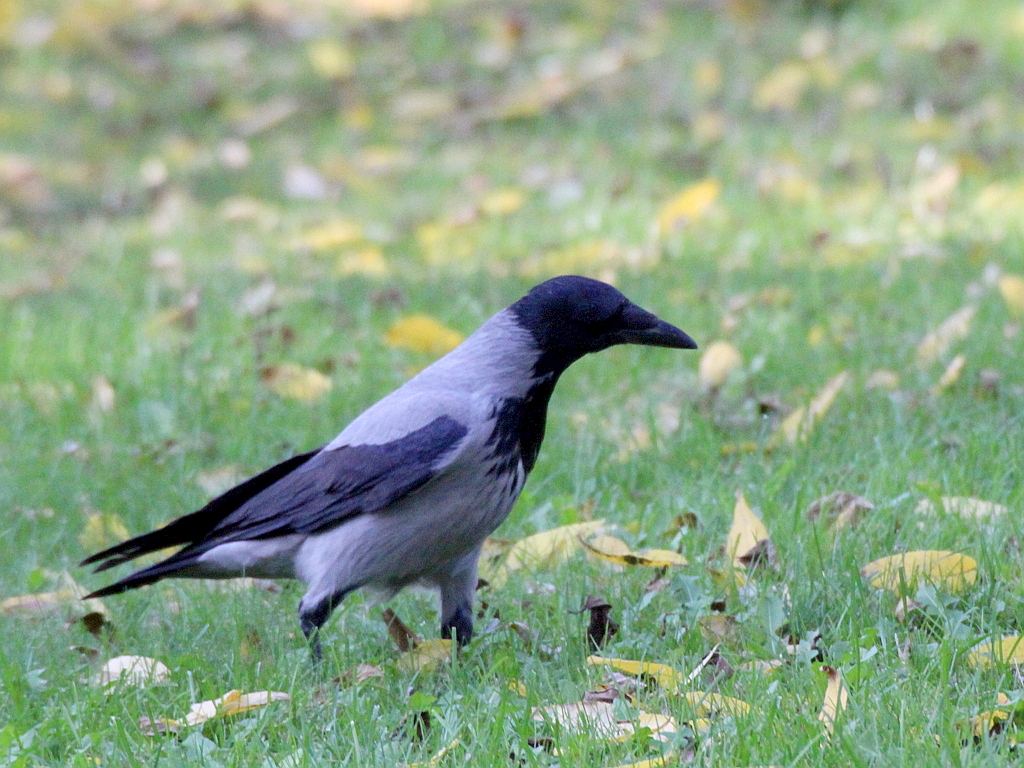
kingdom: Animalia
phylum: Chordata
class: Aves
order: Passeriformes
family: Corvidae
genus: Corvus
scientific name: Corvus cornix
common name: Hooded crow
